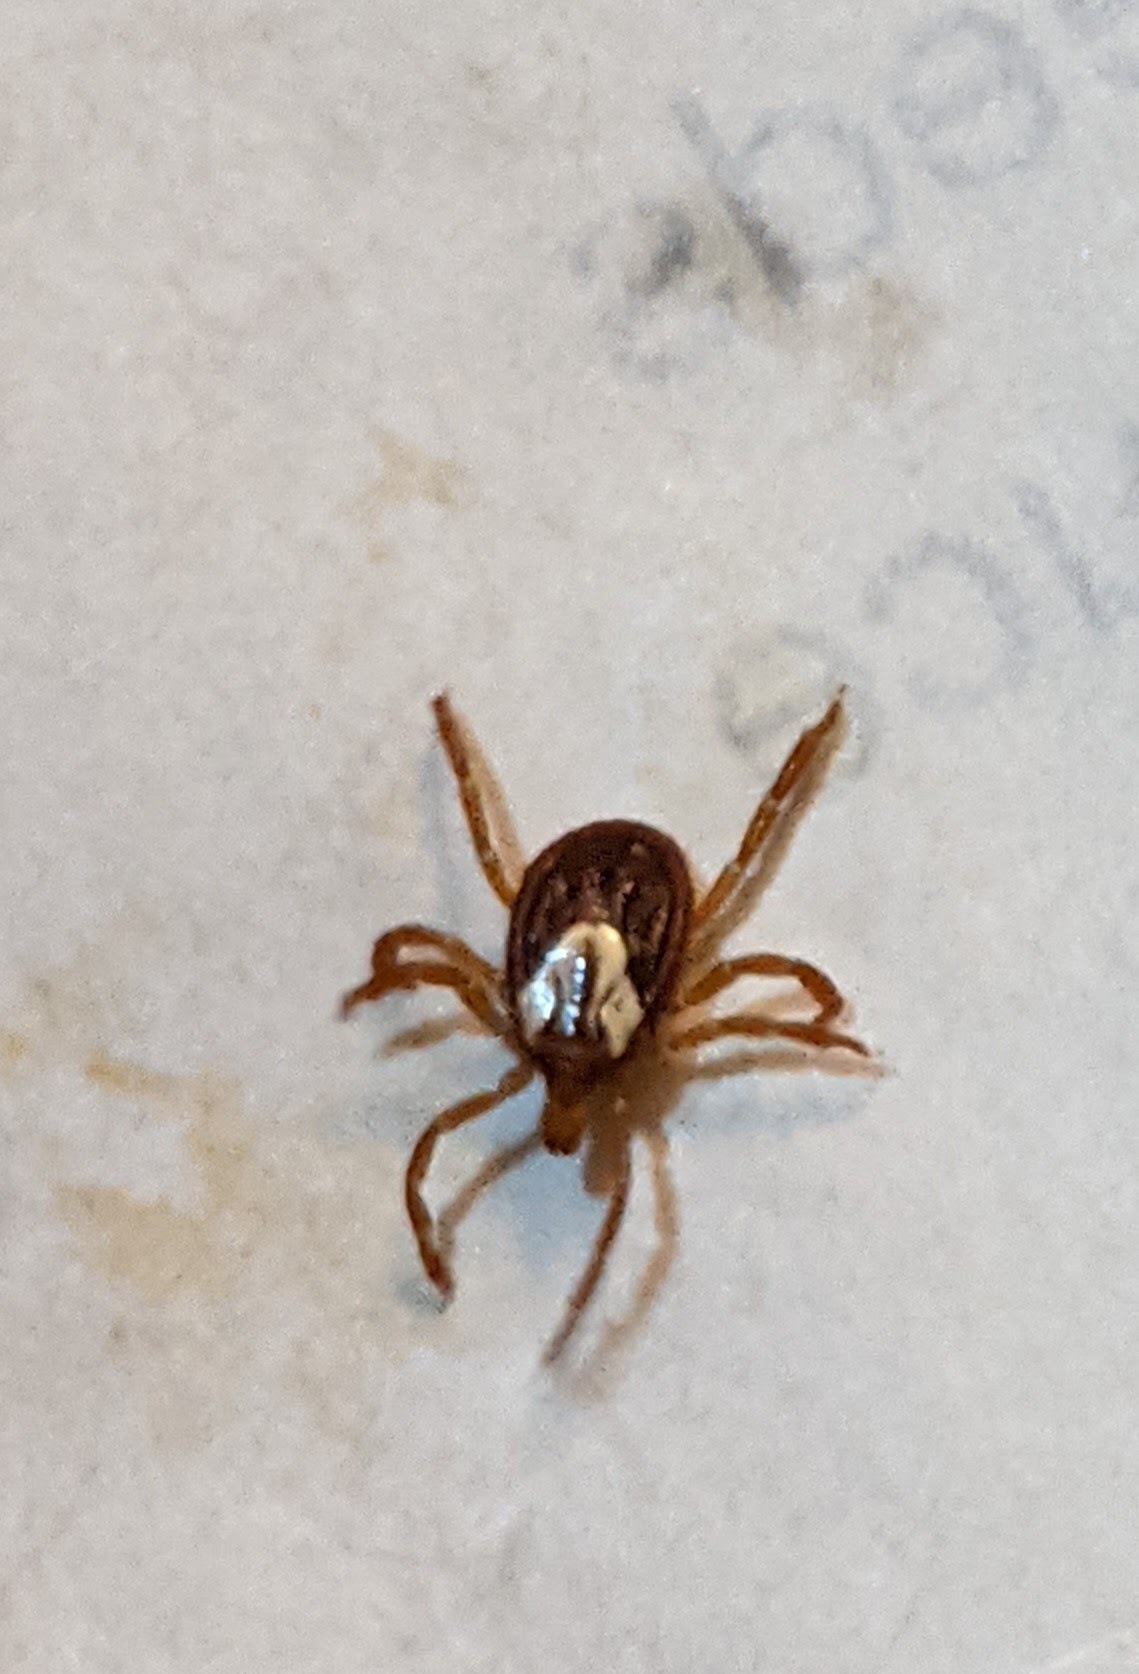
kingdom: Animalia
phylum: Arthropoda
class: Arachnida
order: Ixodida
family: Ixodidae
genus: Amblyomma
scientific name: Amblyomma maculatum
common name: Gulf coast tick
